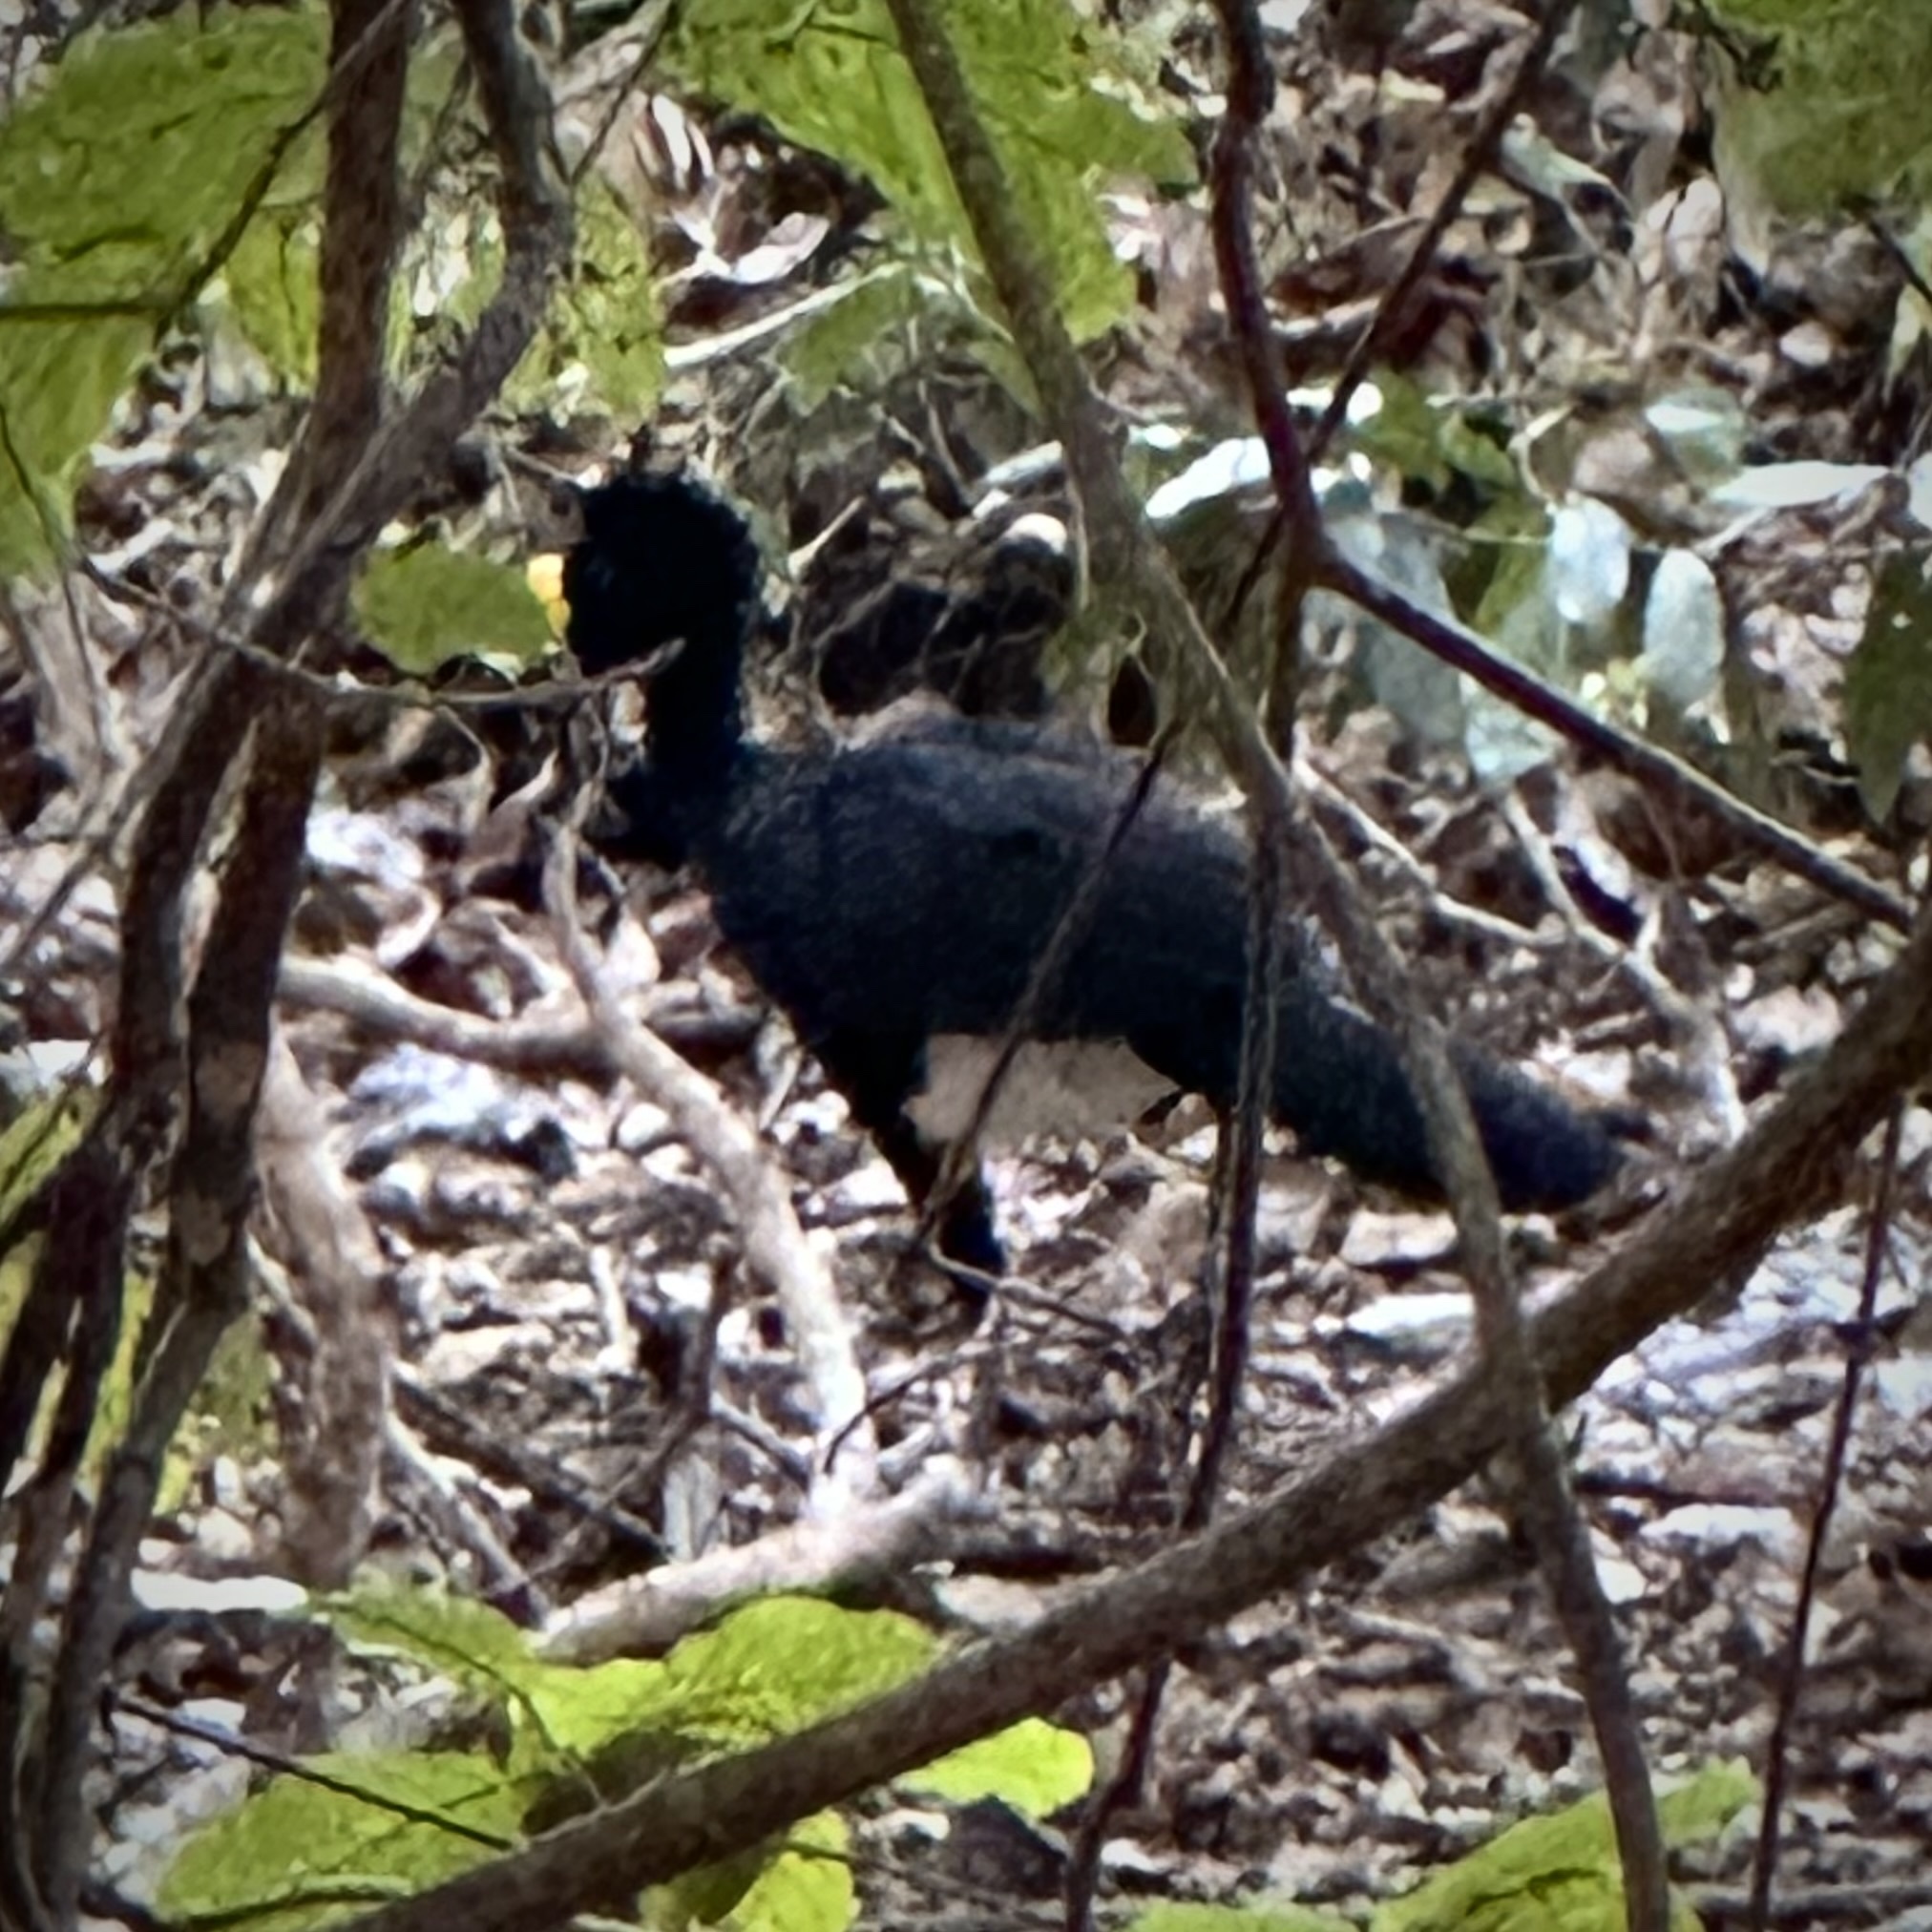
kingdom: Animalia
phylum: Chordata
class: Aves
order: Galliformes
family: Cracidae
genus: Crax
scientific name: Crax rubra
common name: Great curassow
